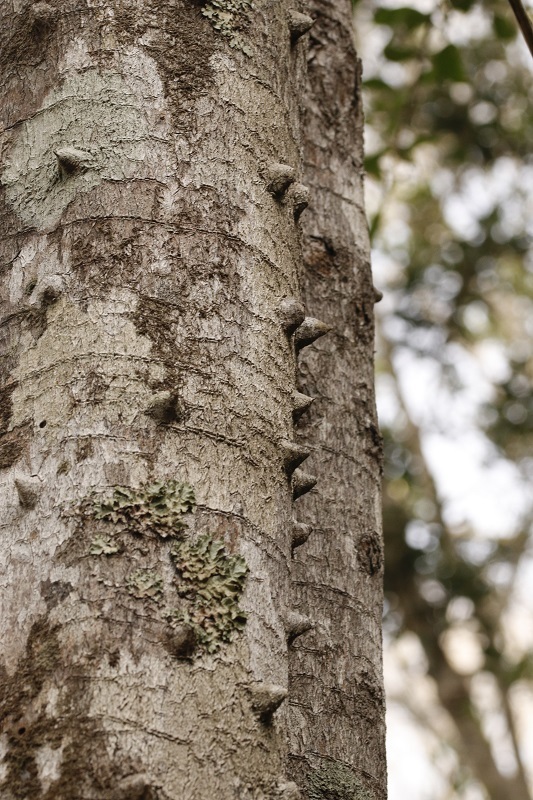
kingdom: Plantae
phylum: Tracheophyta
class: Magnoliopsida
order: Sapindales
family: Rutaceae
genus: Zanthoxylum
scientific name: Zanthoxylum davyi
